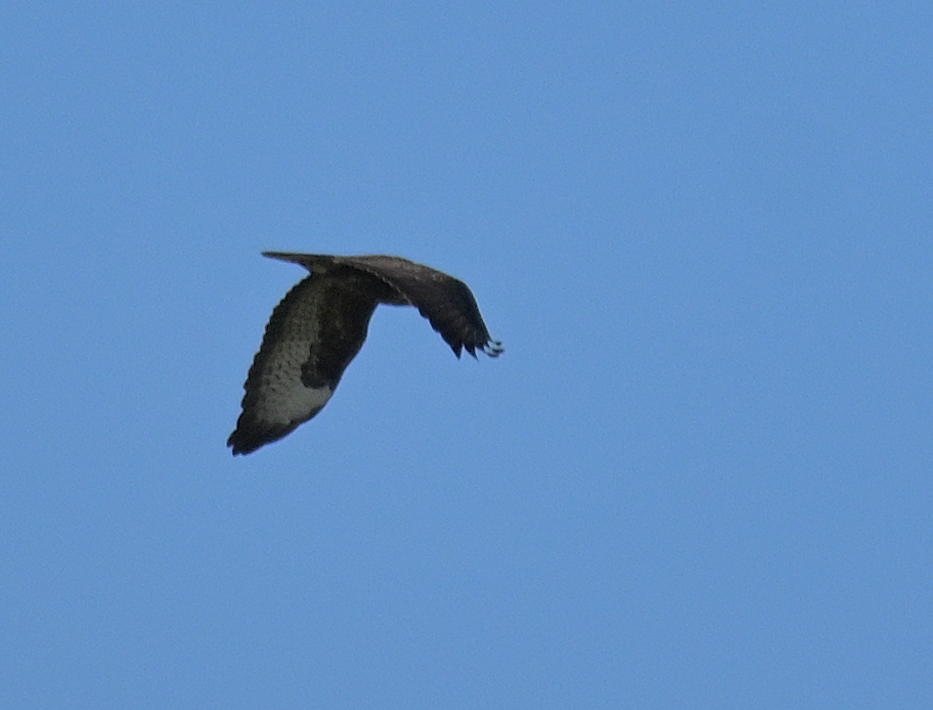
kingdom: Animalia
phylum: Chordata
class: Aves
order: Accipitriformes
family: Accipitridae
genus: Buteo
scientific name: Buteo buteo
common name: Common buzzard
